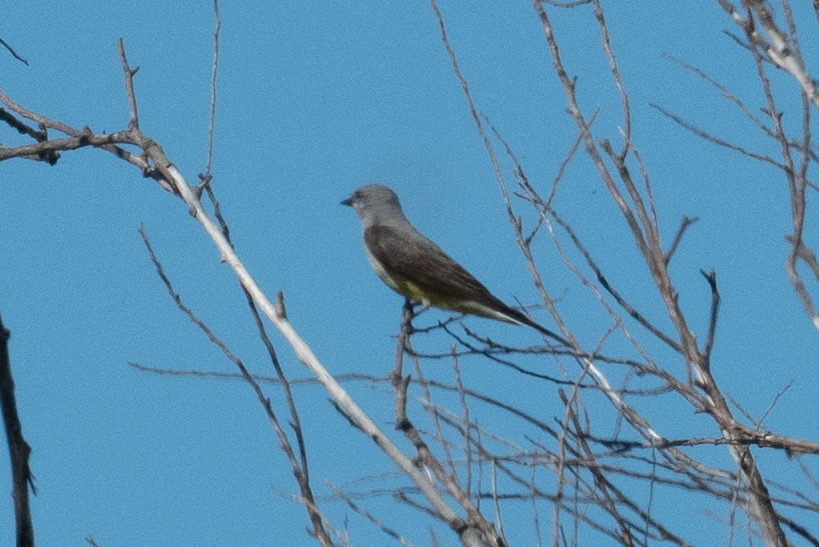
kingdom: Animalia
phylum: Chordata
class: Aves
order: Passeriformes
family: Tyrannidae
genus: Tyrannus
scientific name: Tyrannus verticalis
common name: Western kingbird
